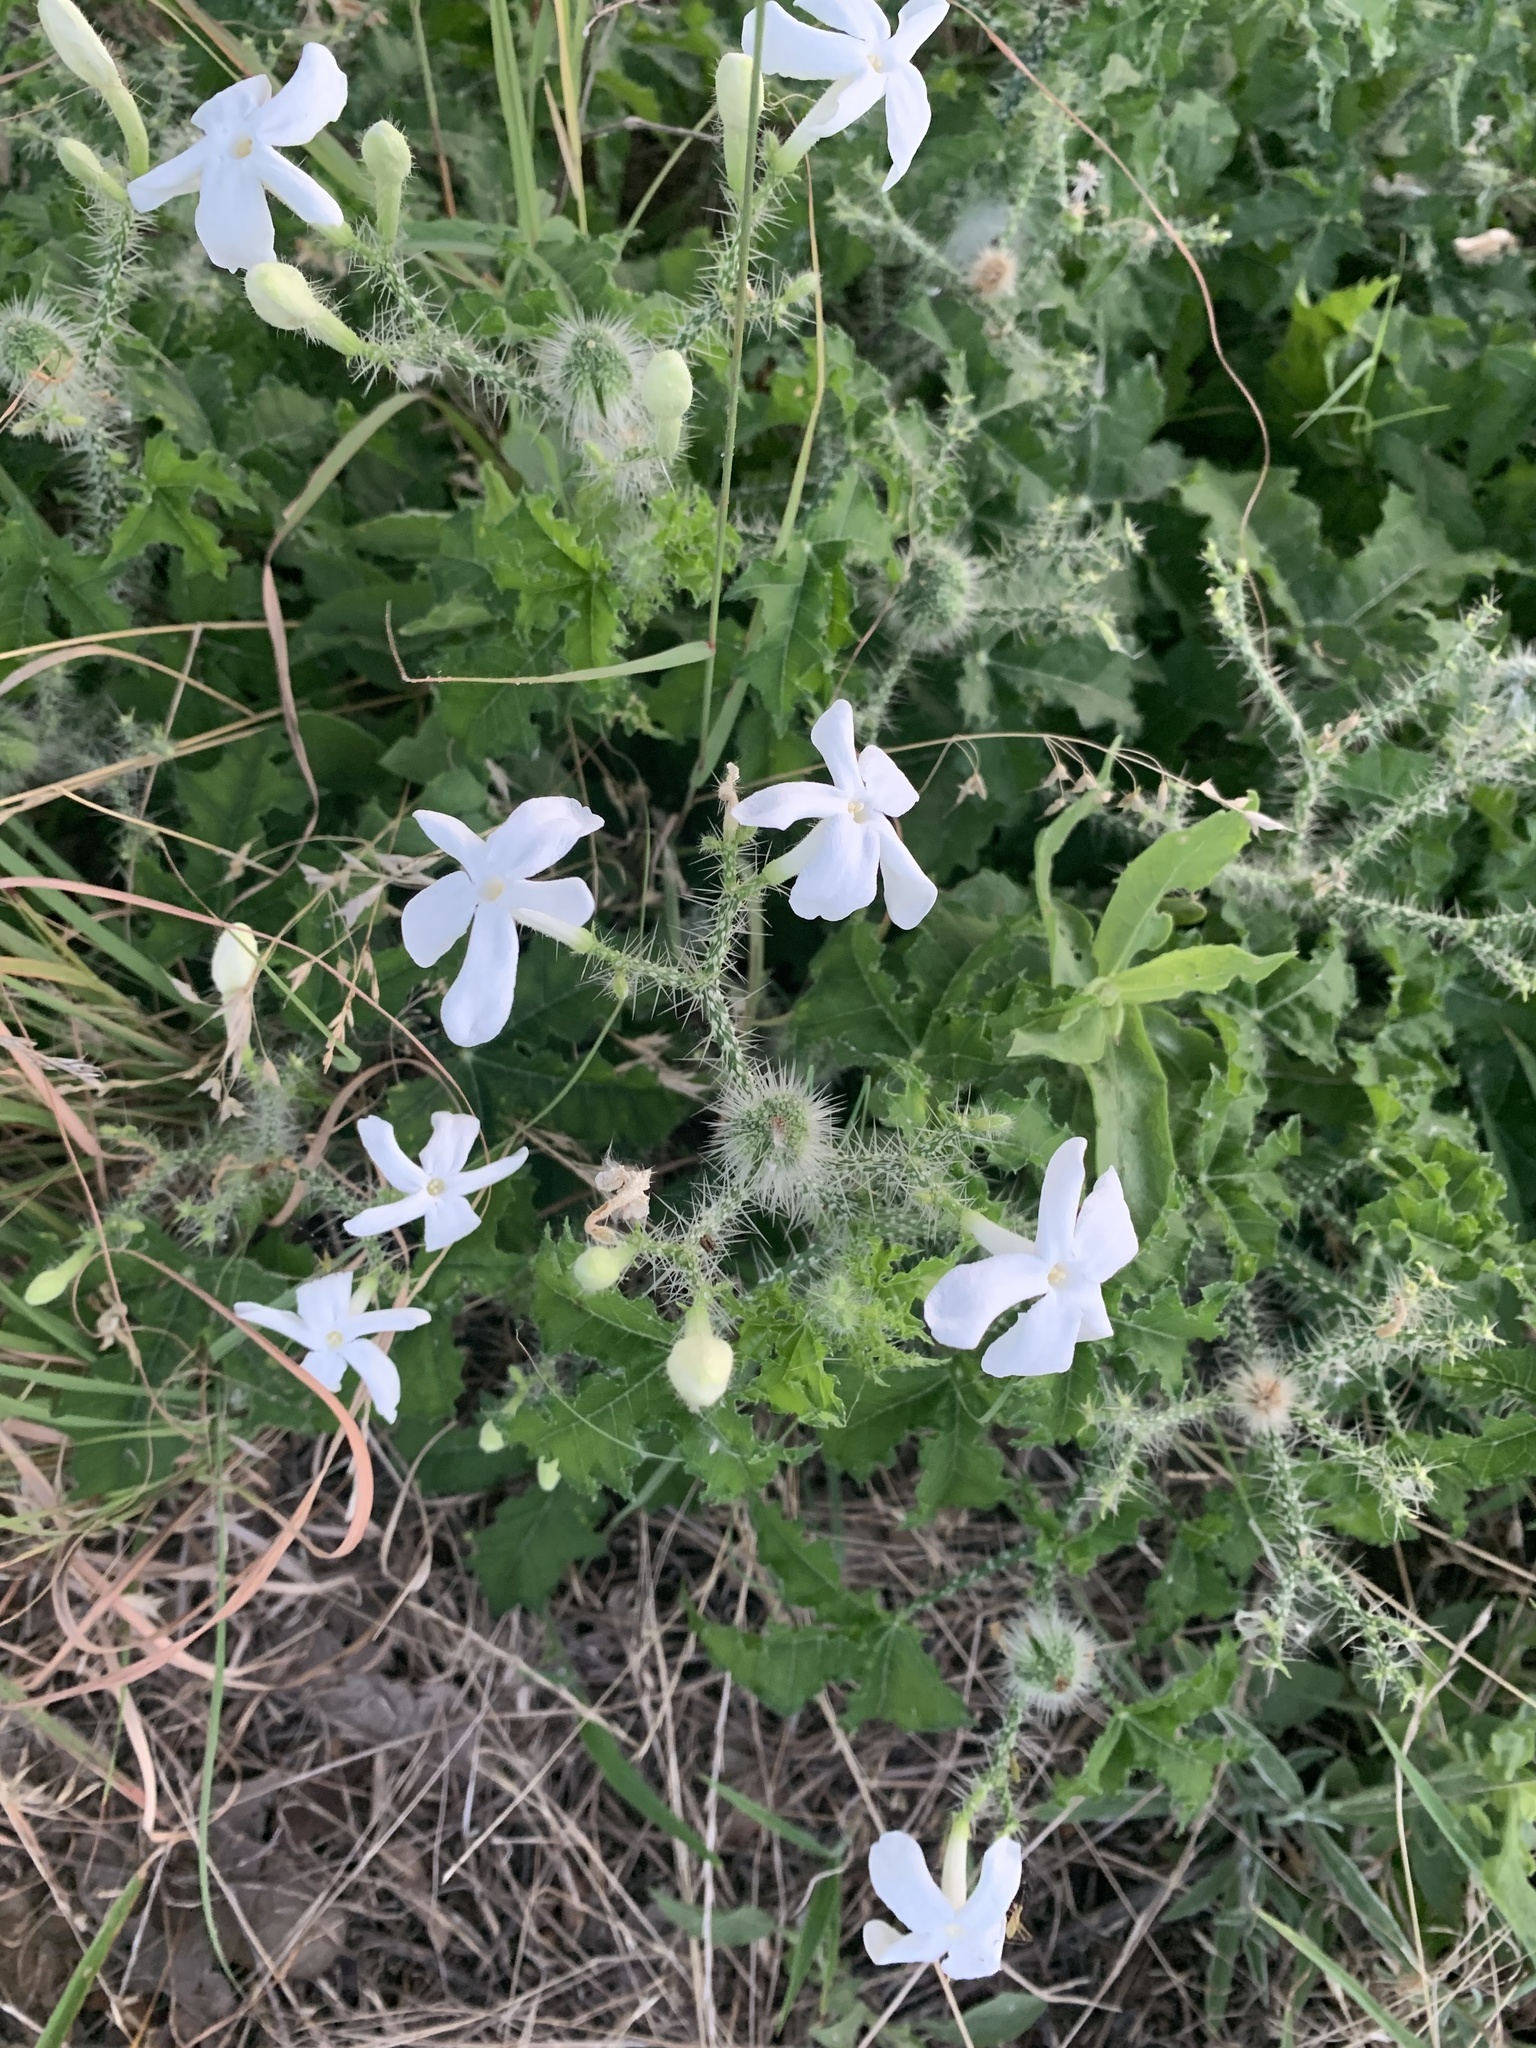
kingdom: Plantae
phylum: Tracheophyta
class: Magnoliopsida
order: Malpighiales
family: Euphorbiaceae
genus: Cnidoscolus
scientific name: Cnidoscolus texanus
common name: Texas bull-nettle
